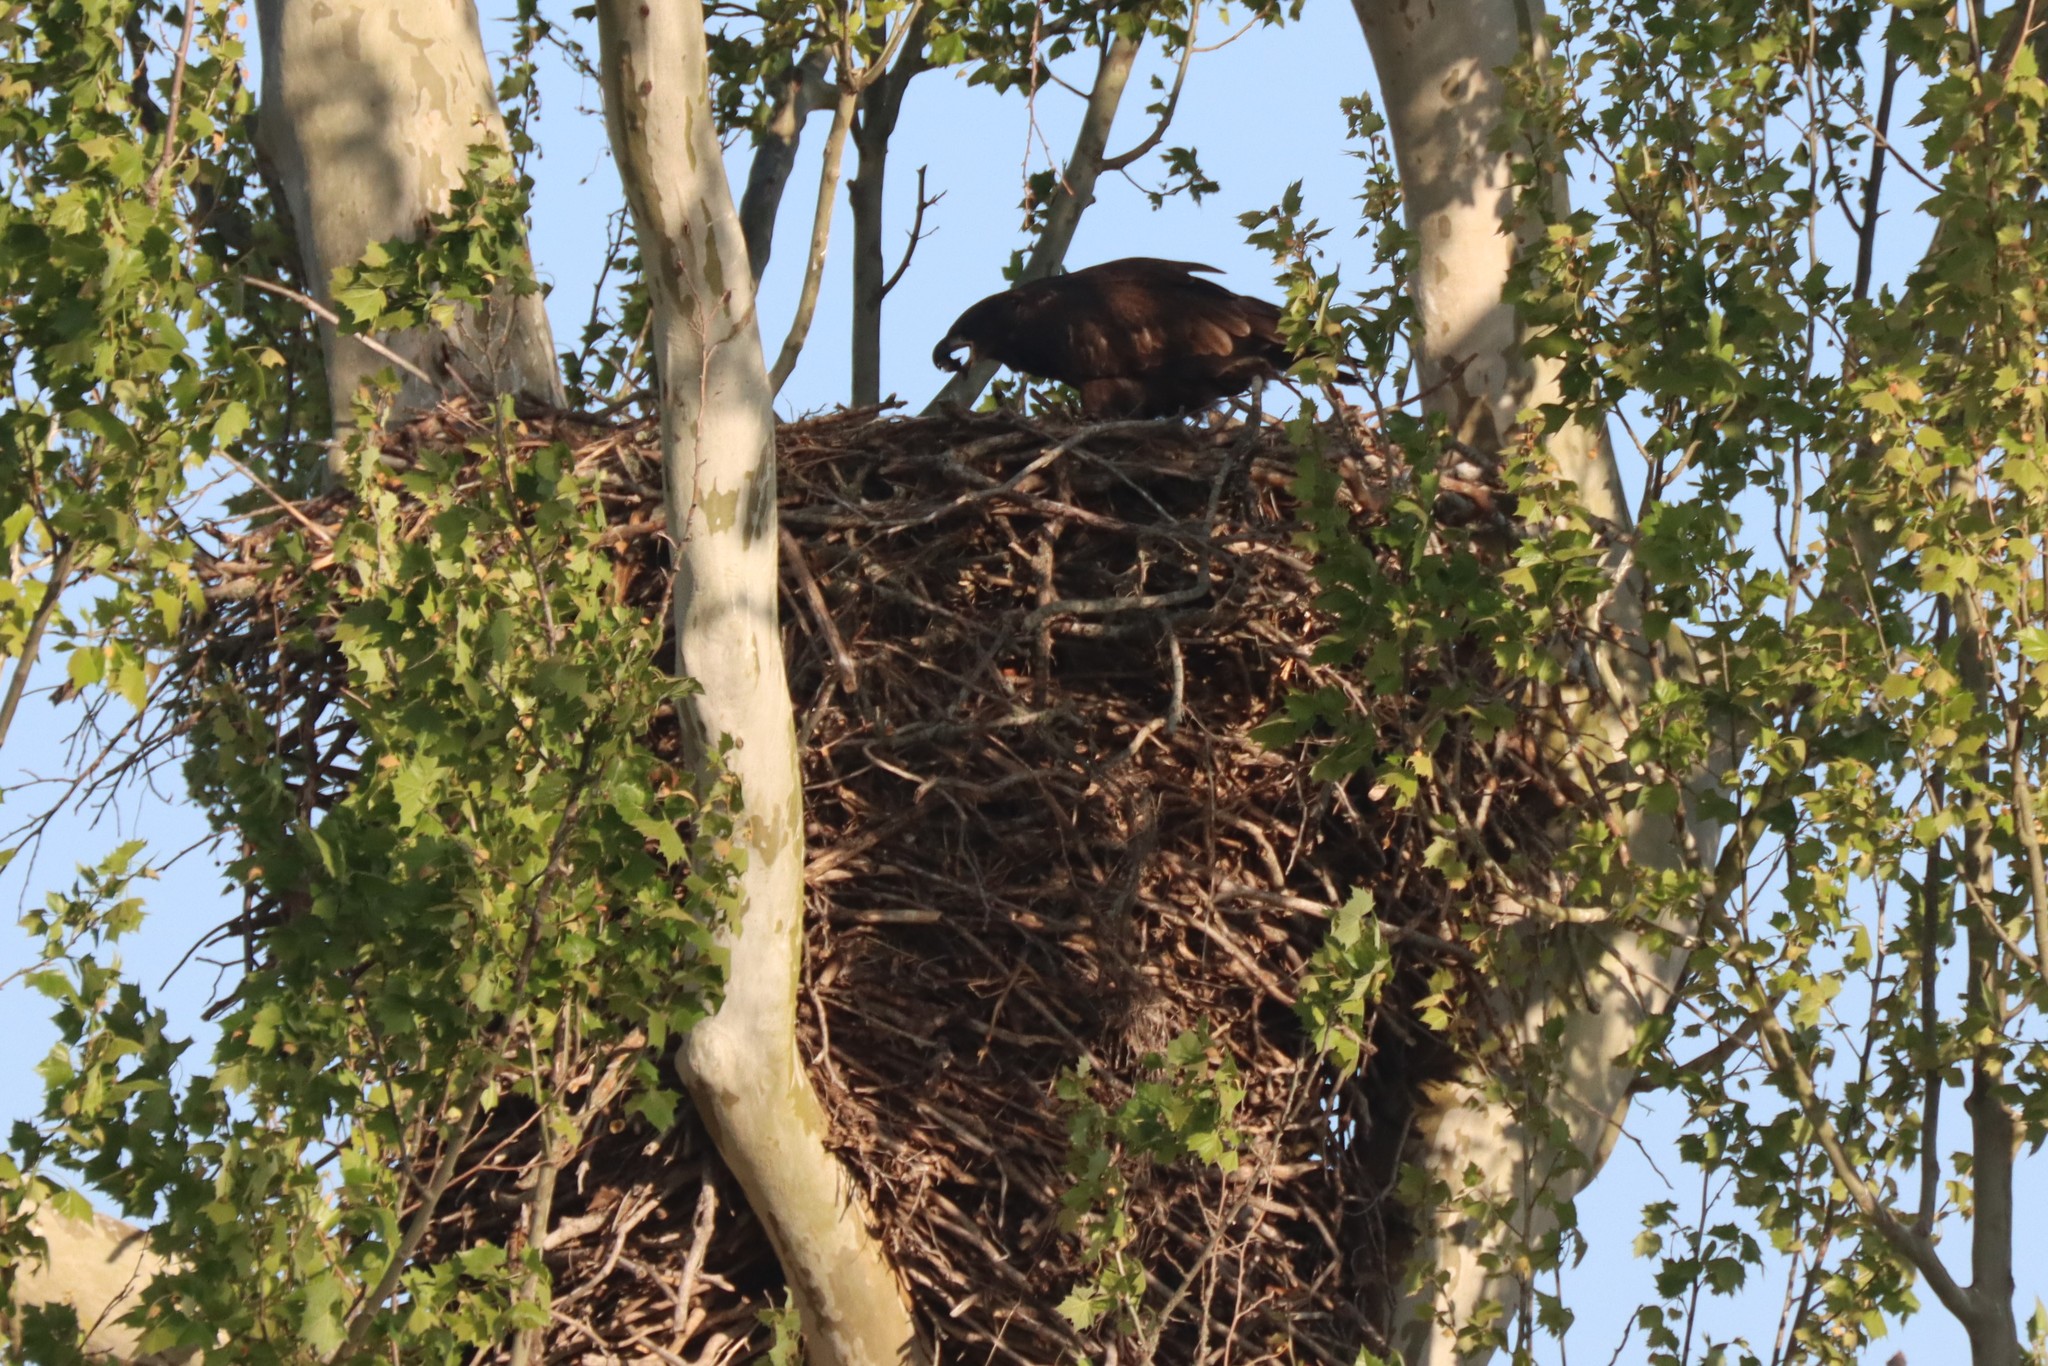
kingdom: Animalia
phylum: Chordata
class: Aves
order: Accipitriformes
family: Accipitridae
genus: Haliaeetus
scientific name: Haliaeetus leucocephalus
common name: Bald eagle
